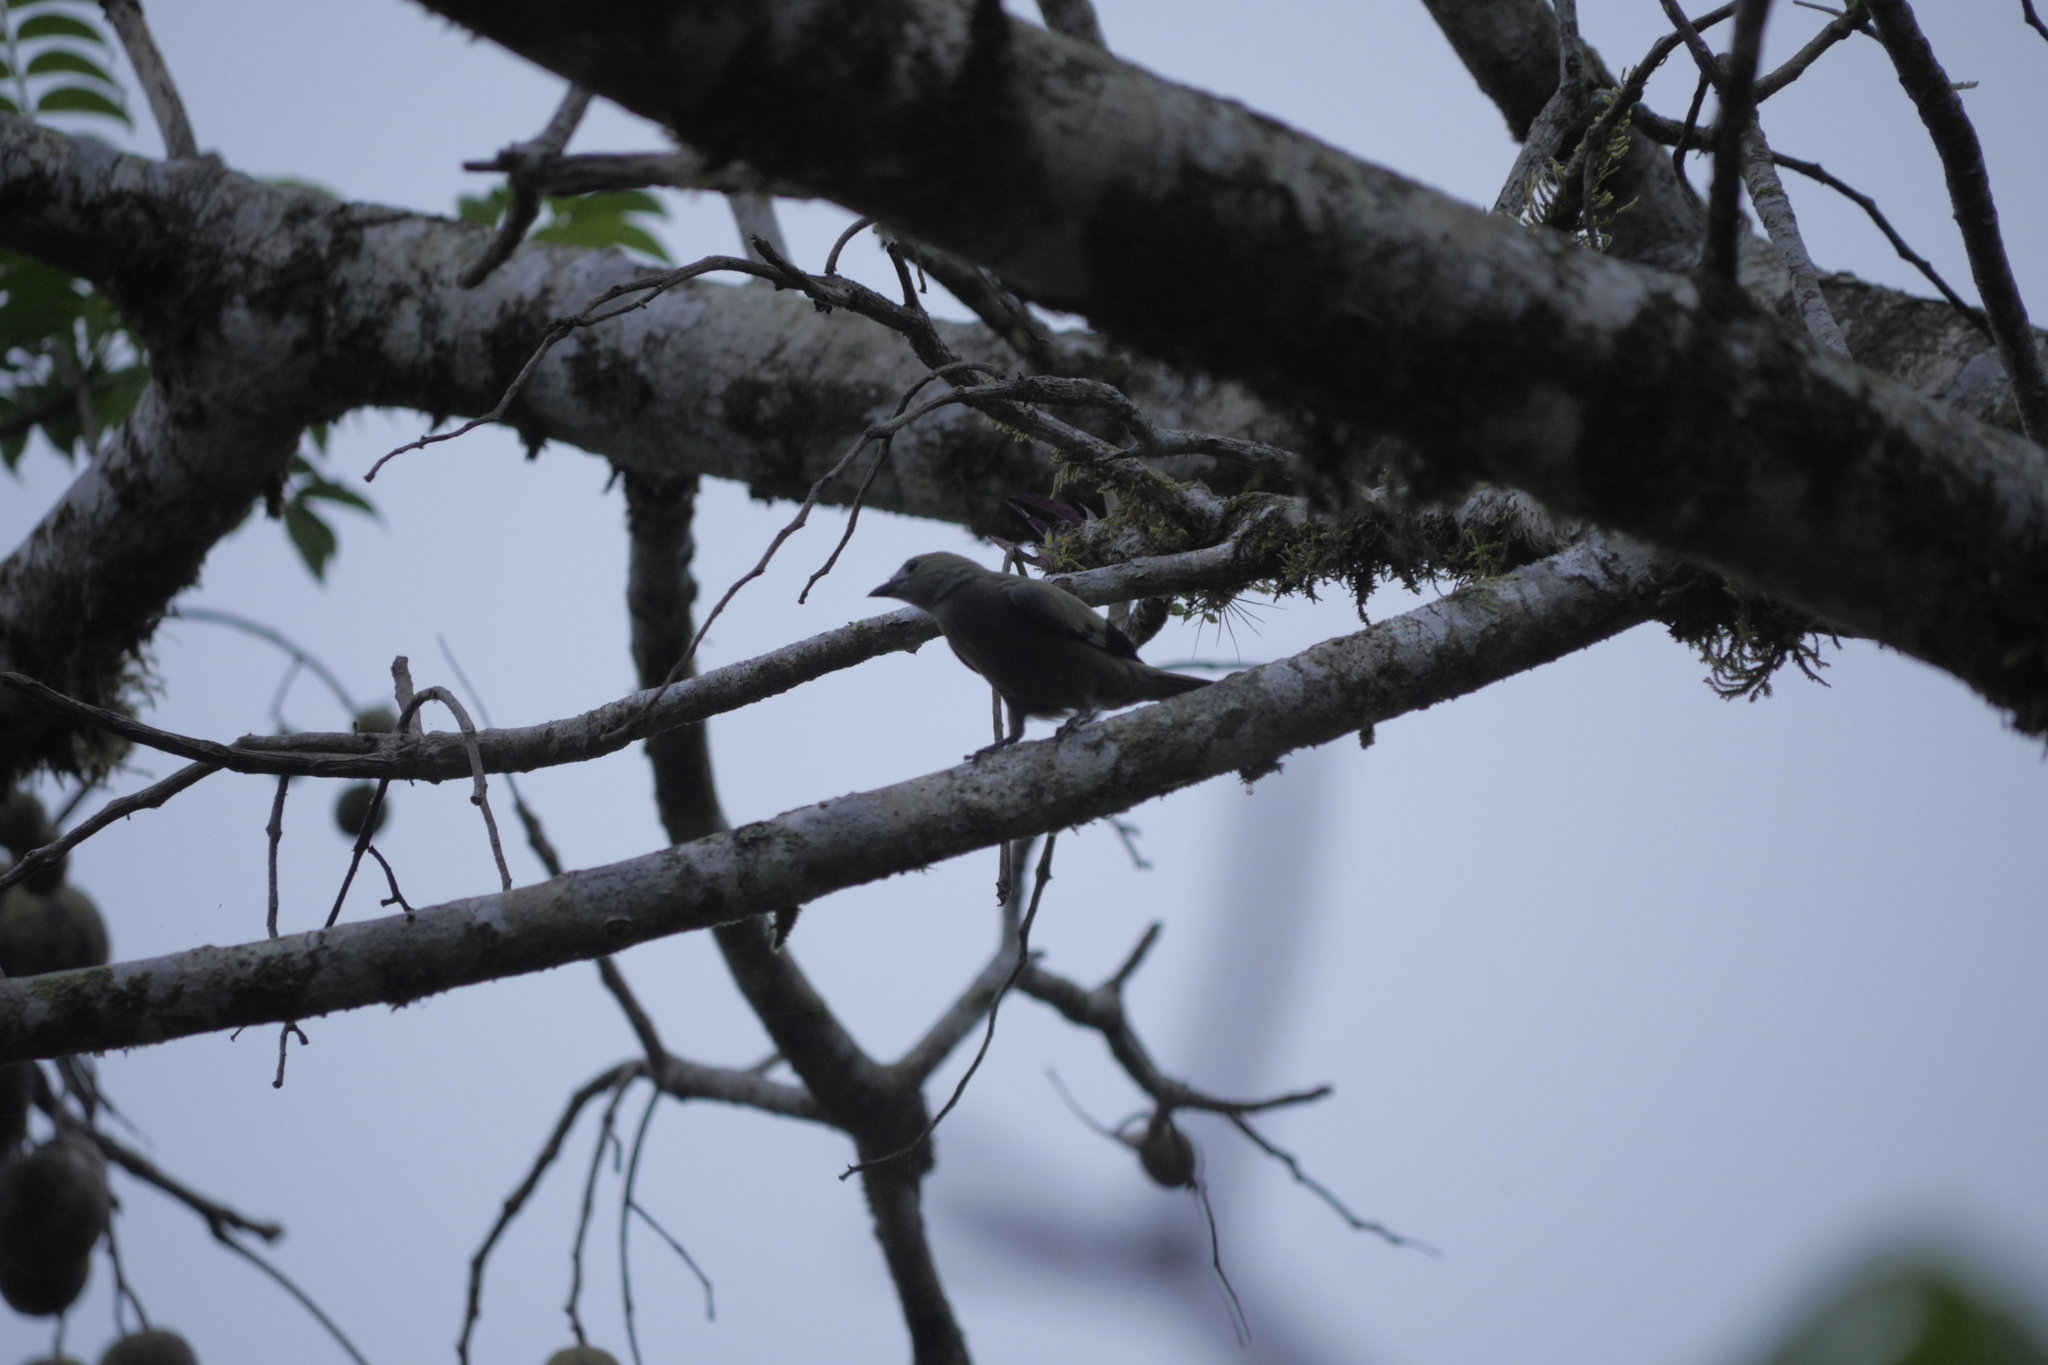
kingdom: Animalia
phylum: Chordata
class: Aves
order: Passeriformes
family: Thraupidae
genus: Thraupis
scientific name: Thraupis palmarum
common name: Palm tanager
